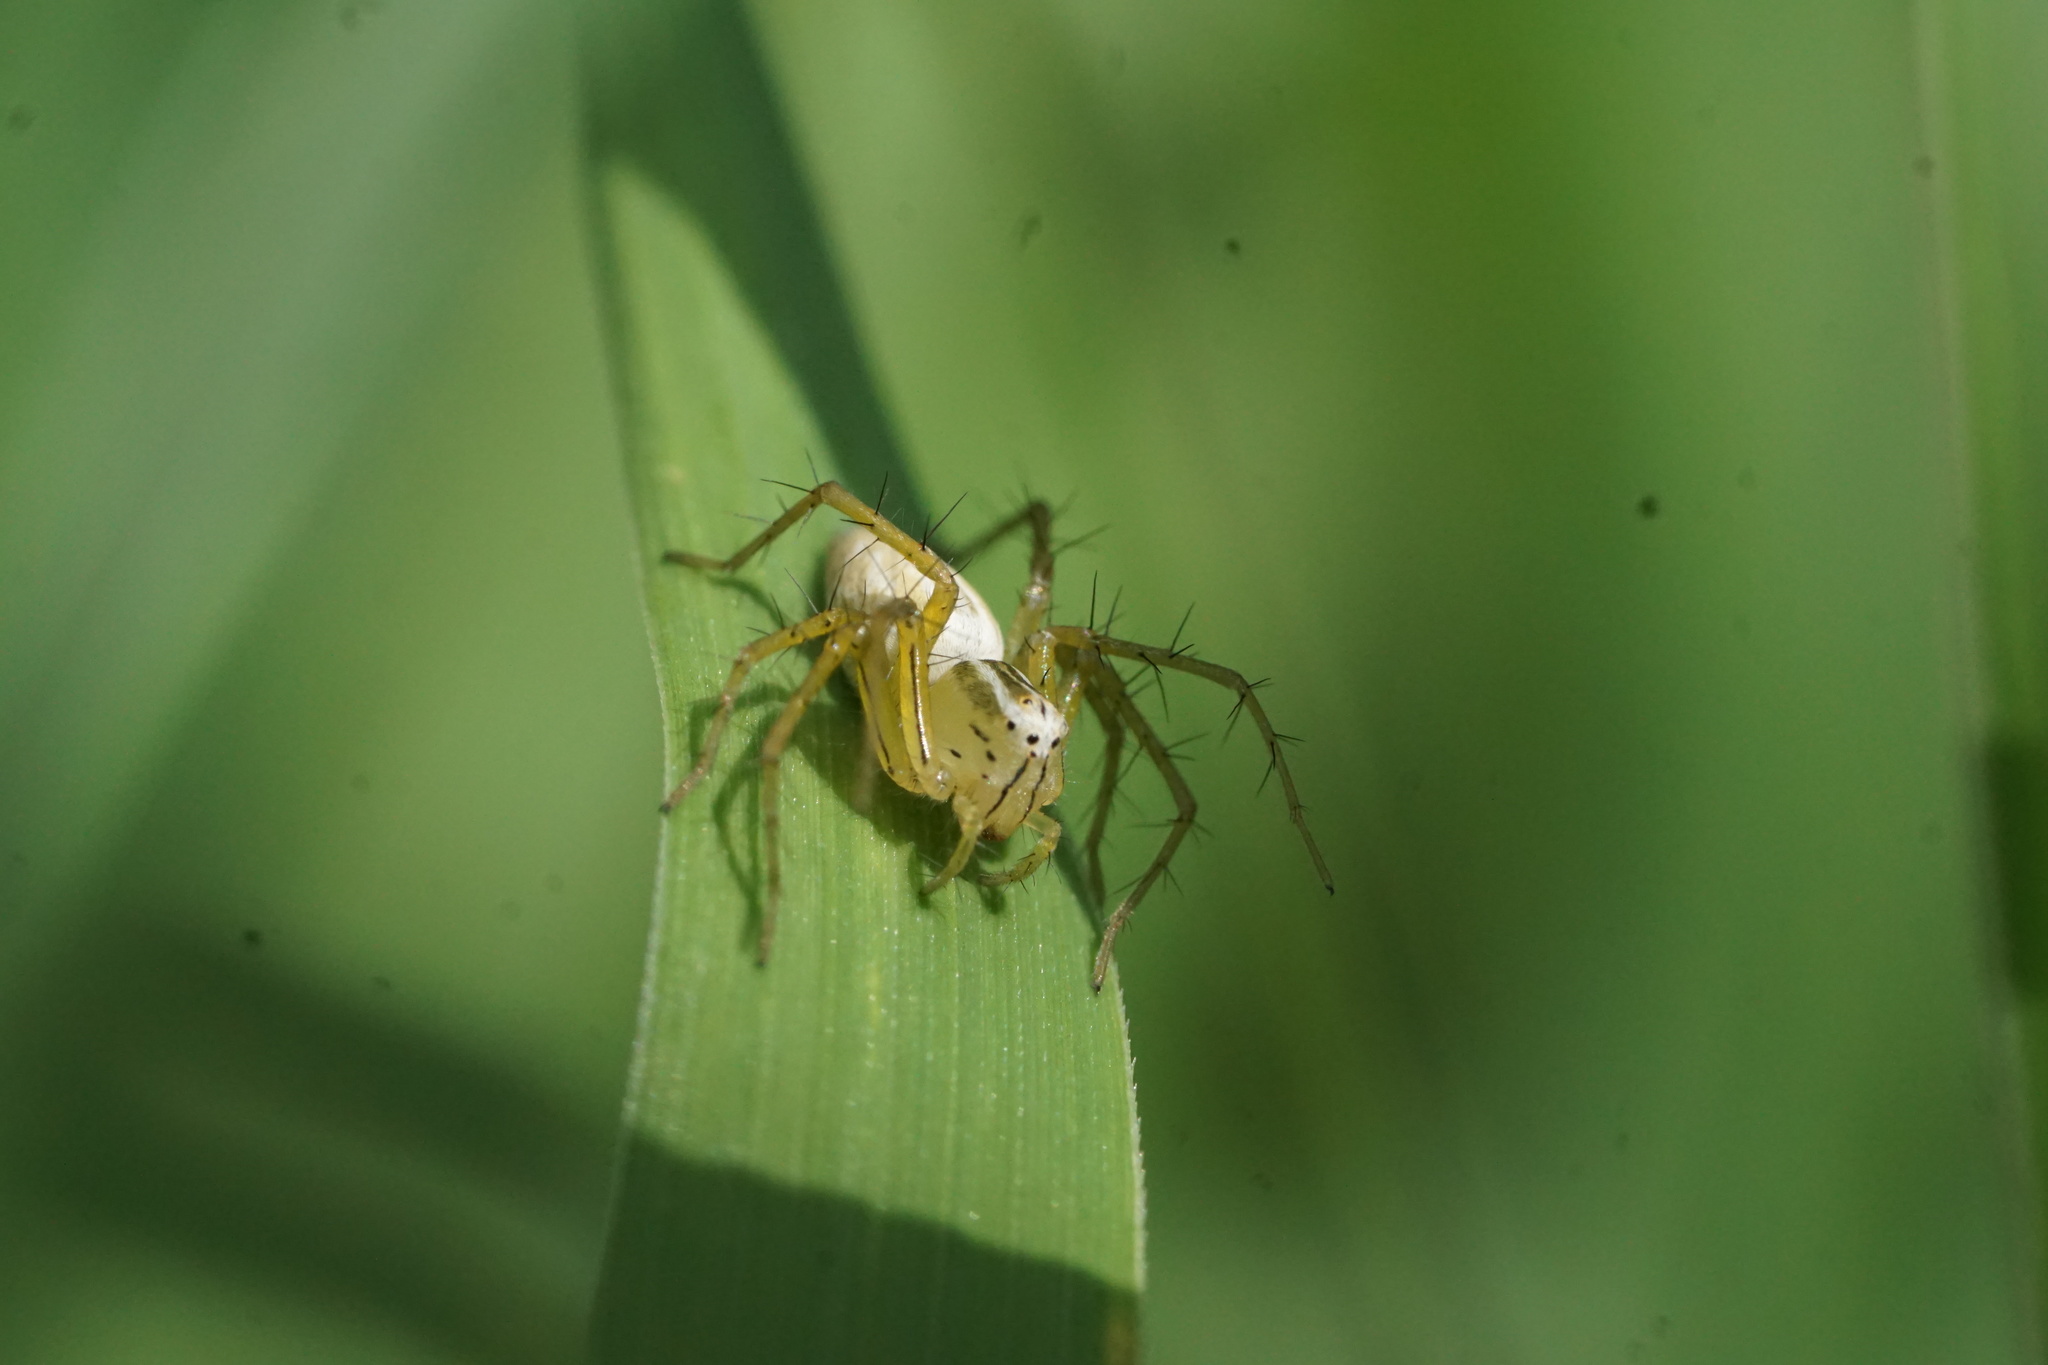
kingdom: Animalia
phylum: Arthropoda
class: Arachnida
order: Araneae
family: Oxyopidae
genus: Oxyopes
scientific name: Oxyopes salticus
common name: Lynx spiders
